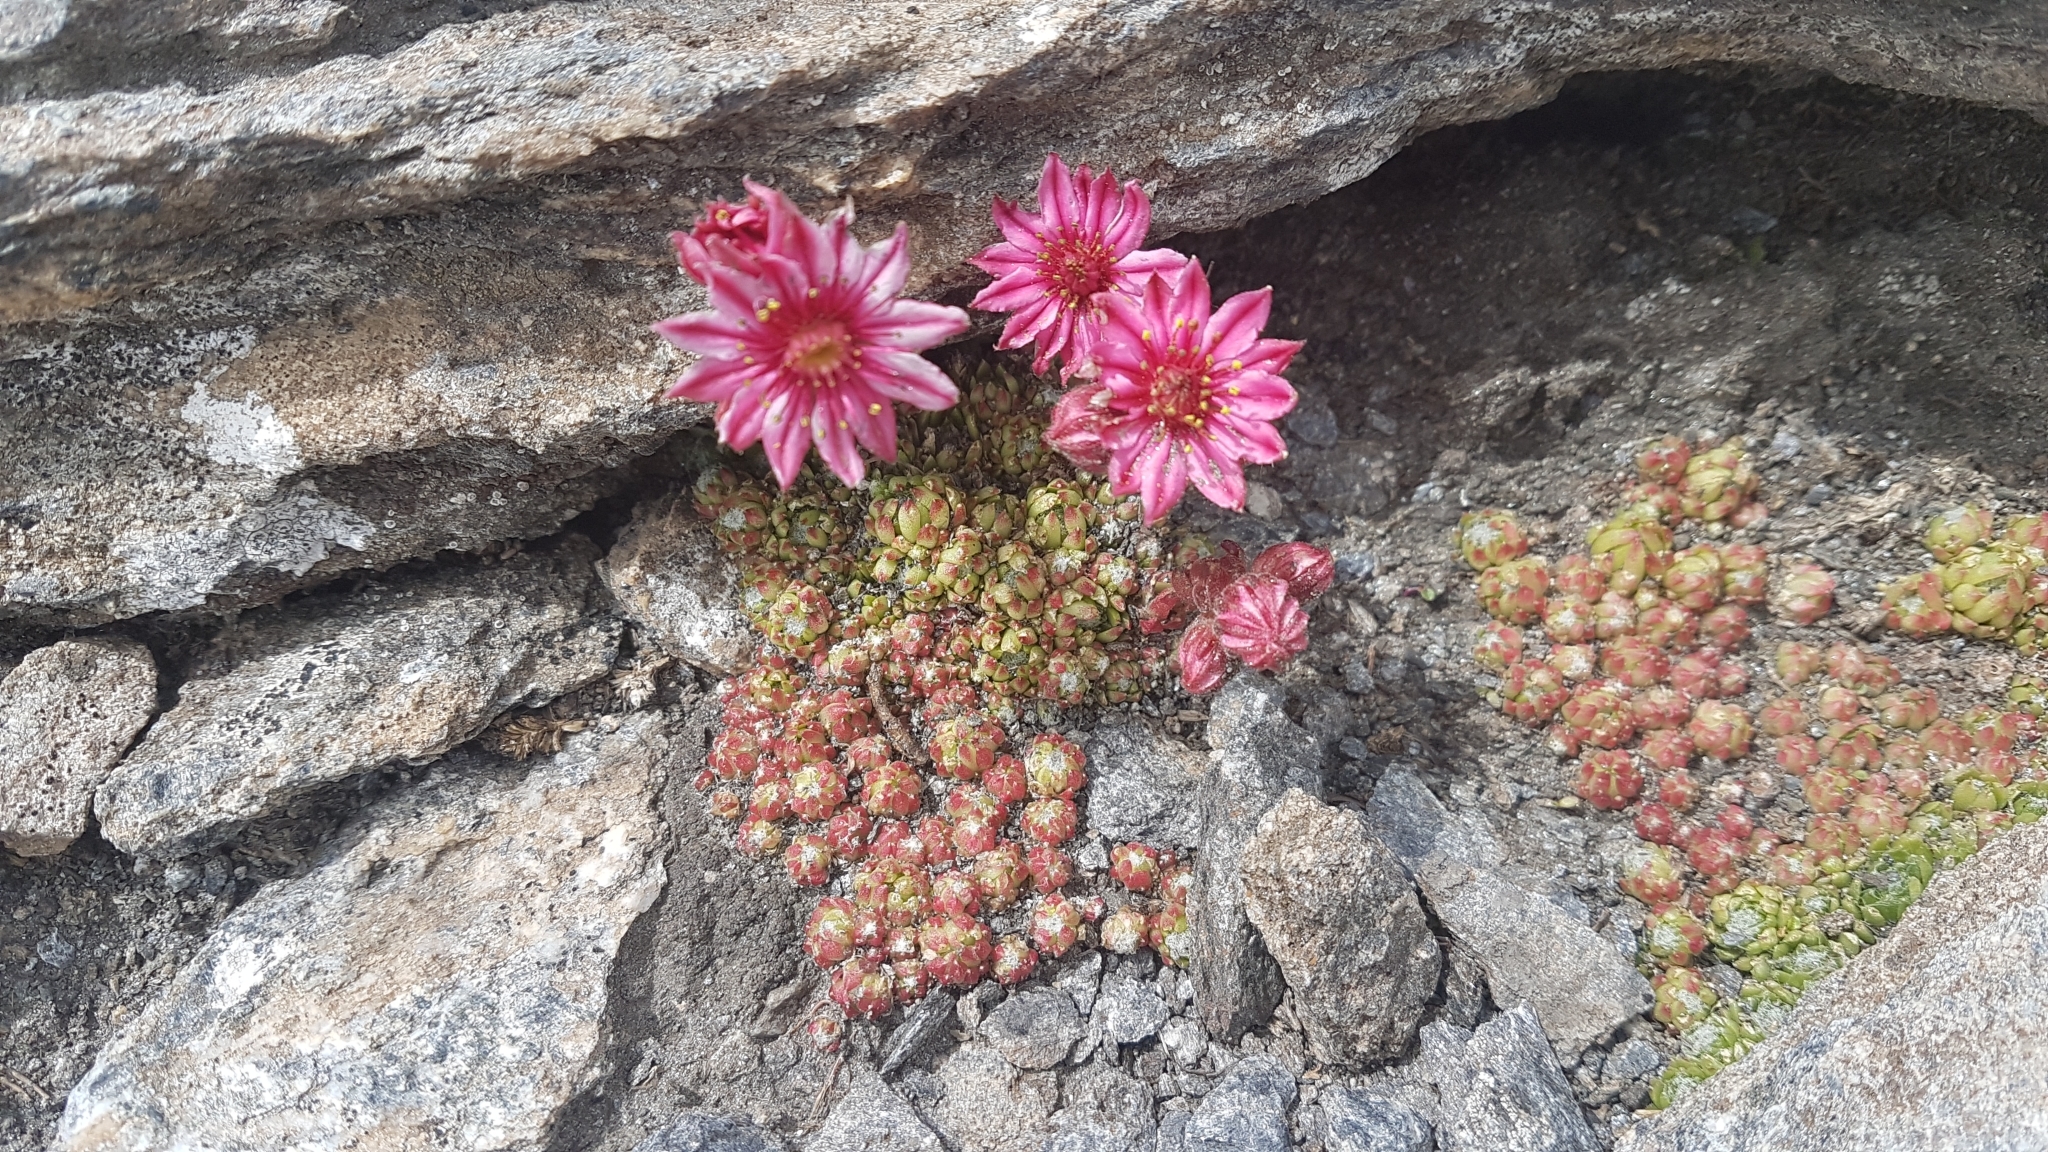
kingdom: Plantae
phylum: Tracheophyta
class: Magnoliopsida
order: Saxifragales
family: Crassulaceae
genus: Sempervivum
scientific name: Sempervivum arachnoideum
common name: Cobweb house-leek
